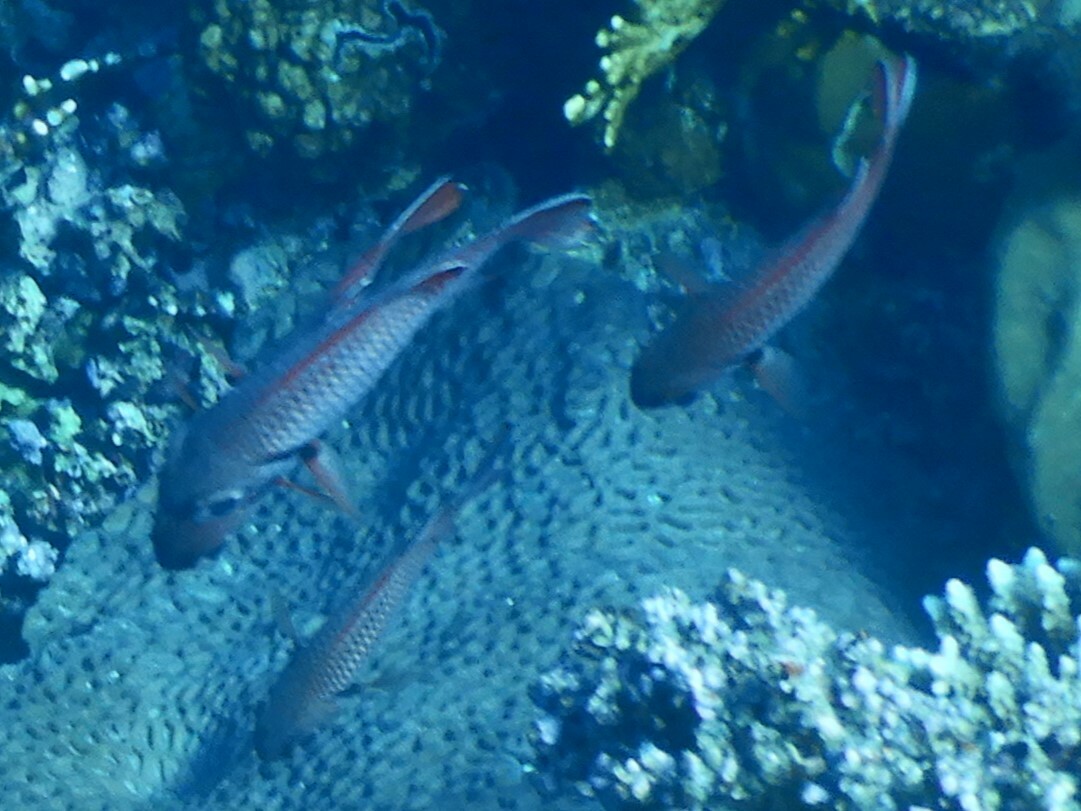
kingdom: Animalia
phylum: Chordata
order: Beryciformes
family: Holocentridae
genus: Myripristis
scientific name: Myripristis murdjan
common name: Big-eye soldierfish
